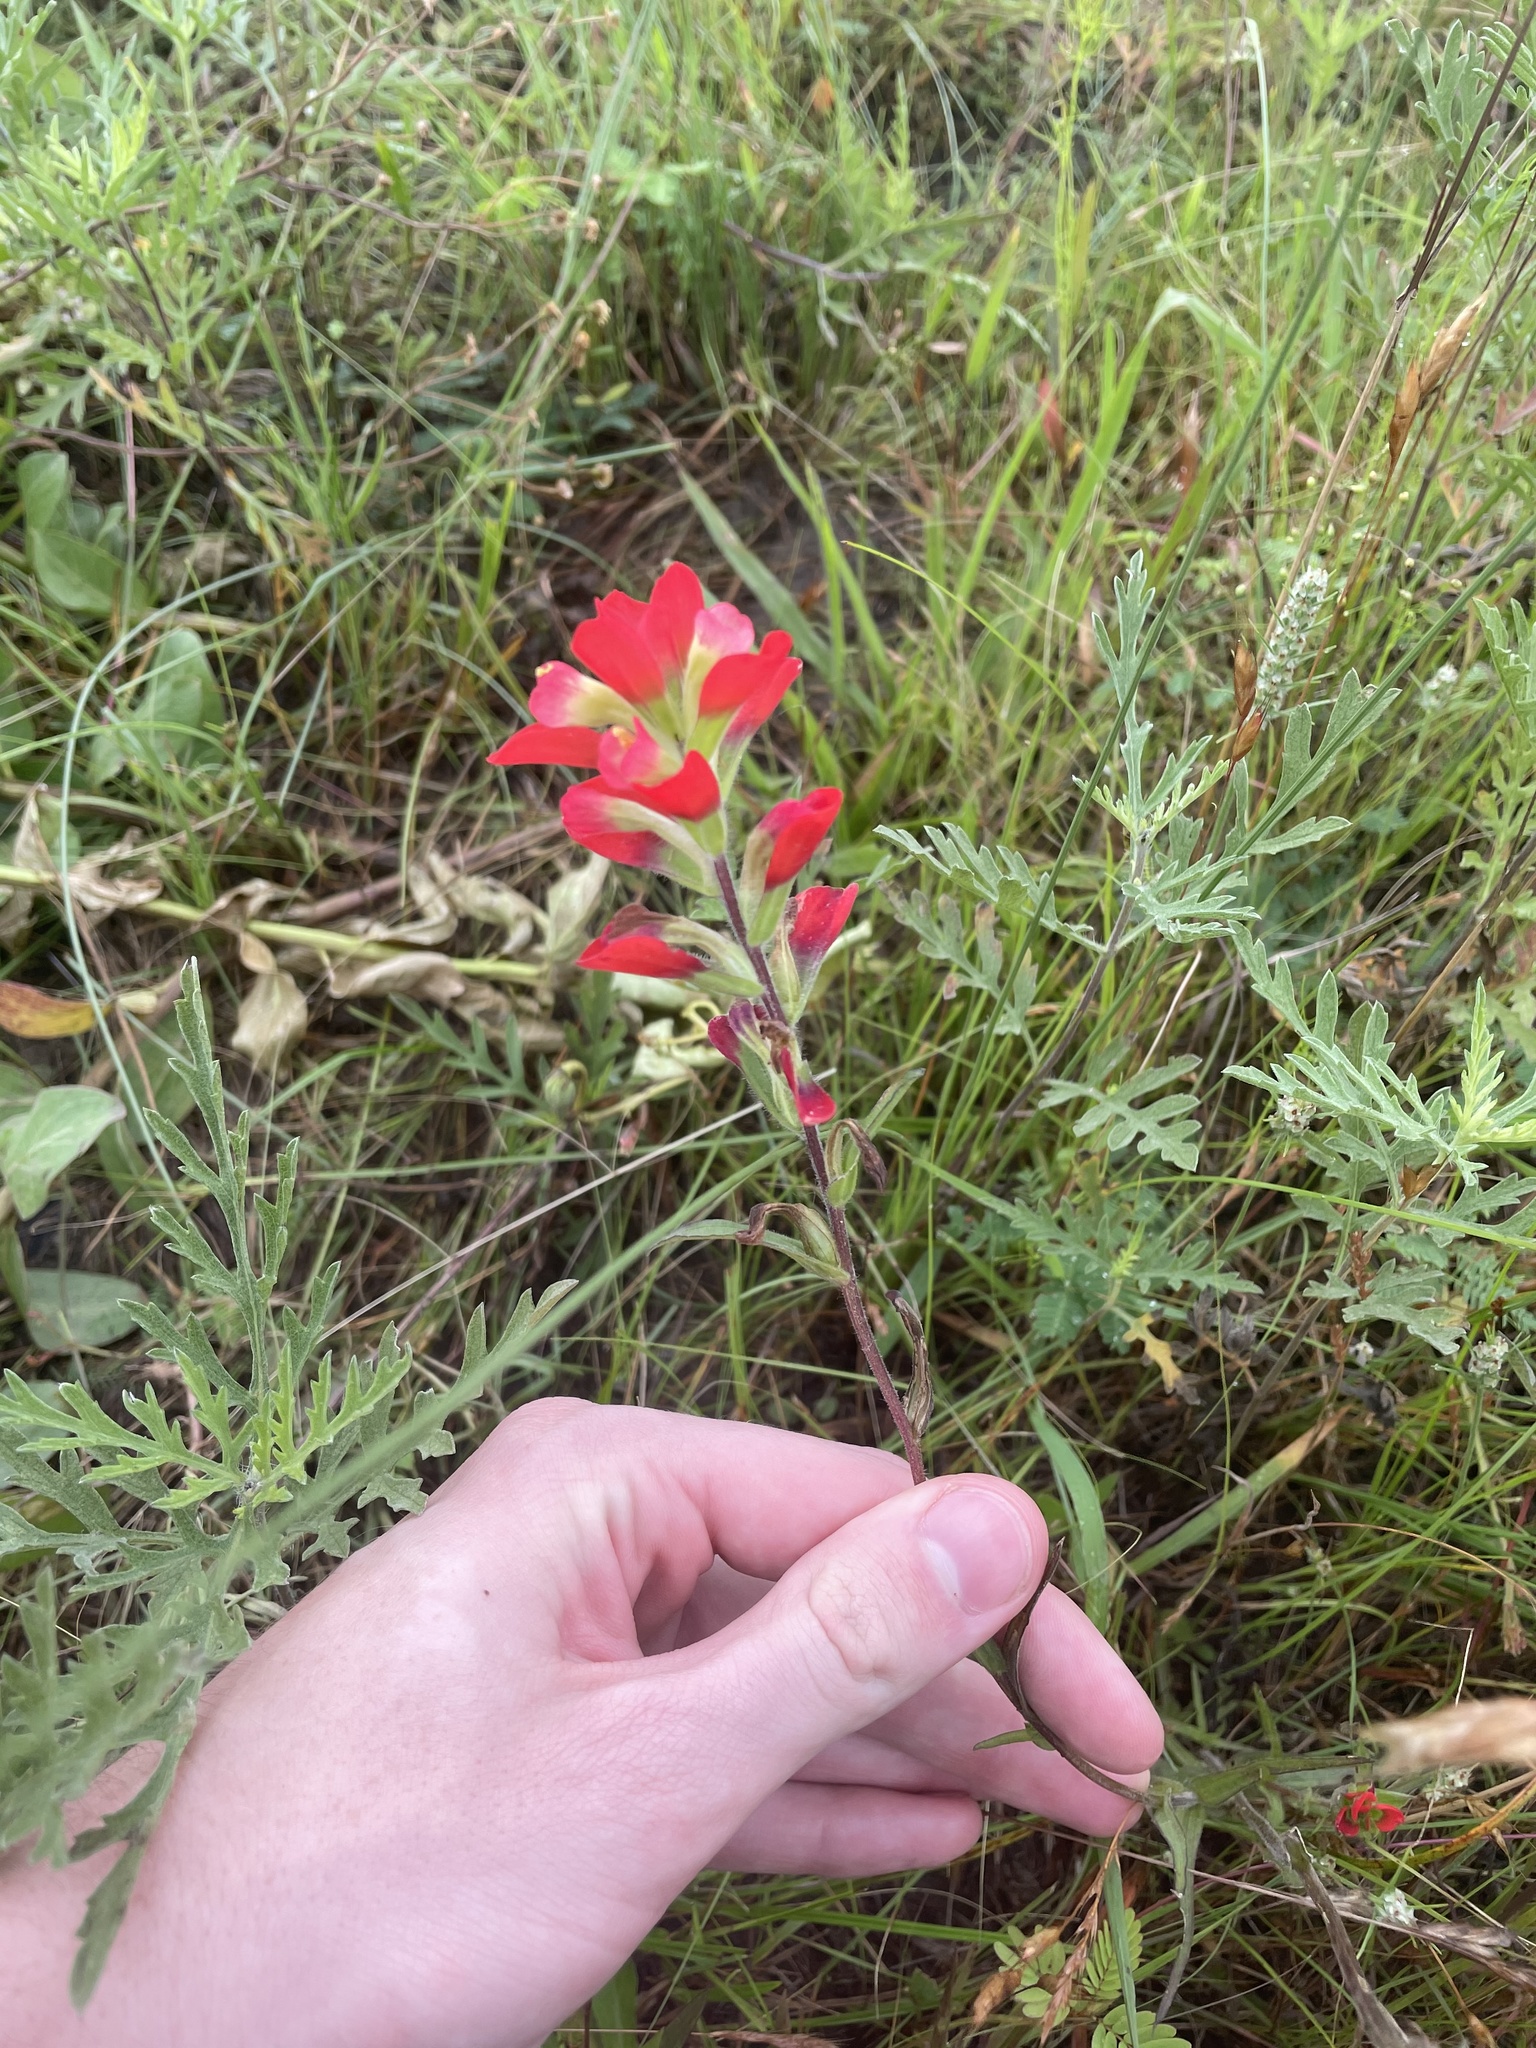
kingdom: Plantae
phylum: Tracheophyta
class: Magnoliopsida
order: Lamiales
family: Orobanchaceae
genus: Castilleja
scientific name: Castilleja indivisa
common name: Texas paintbrush
